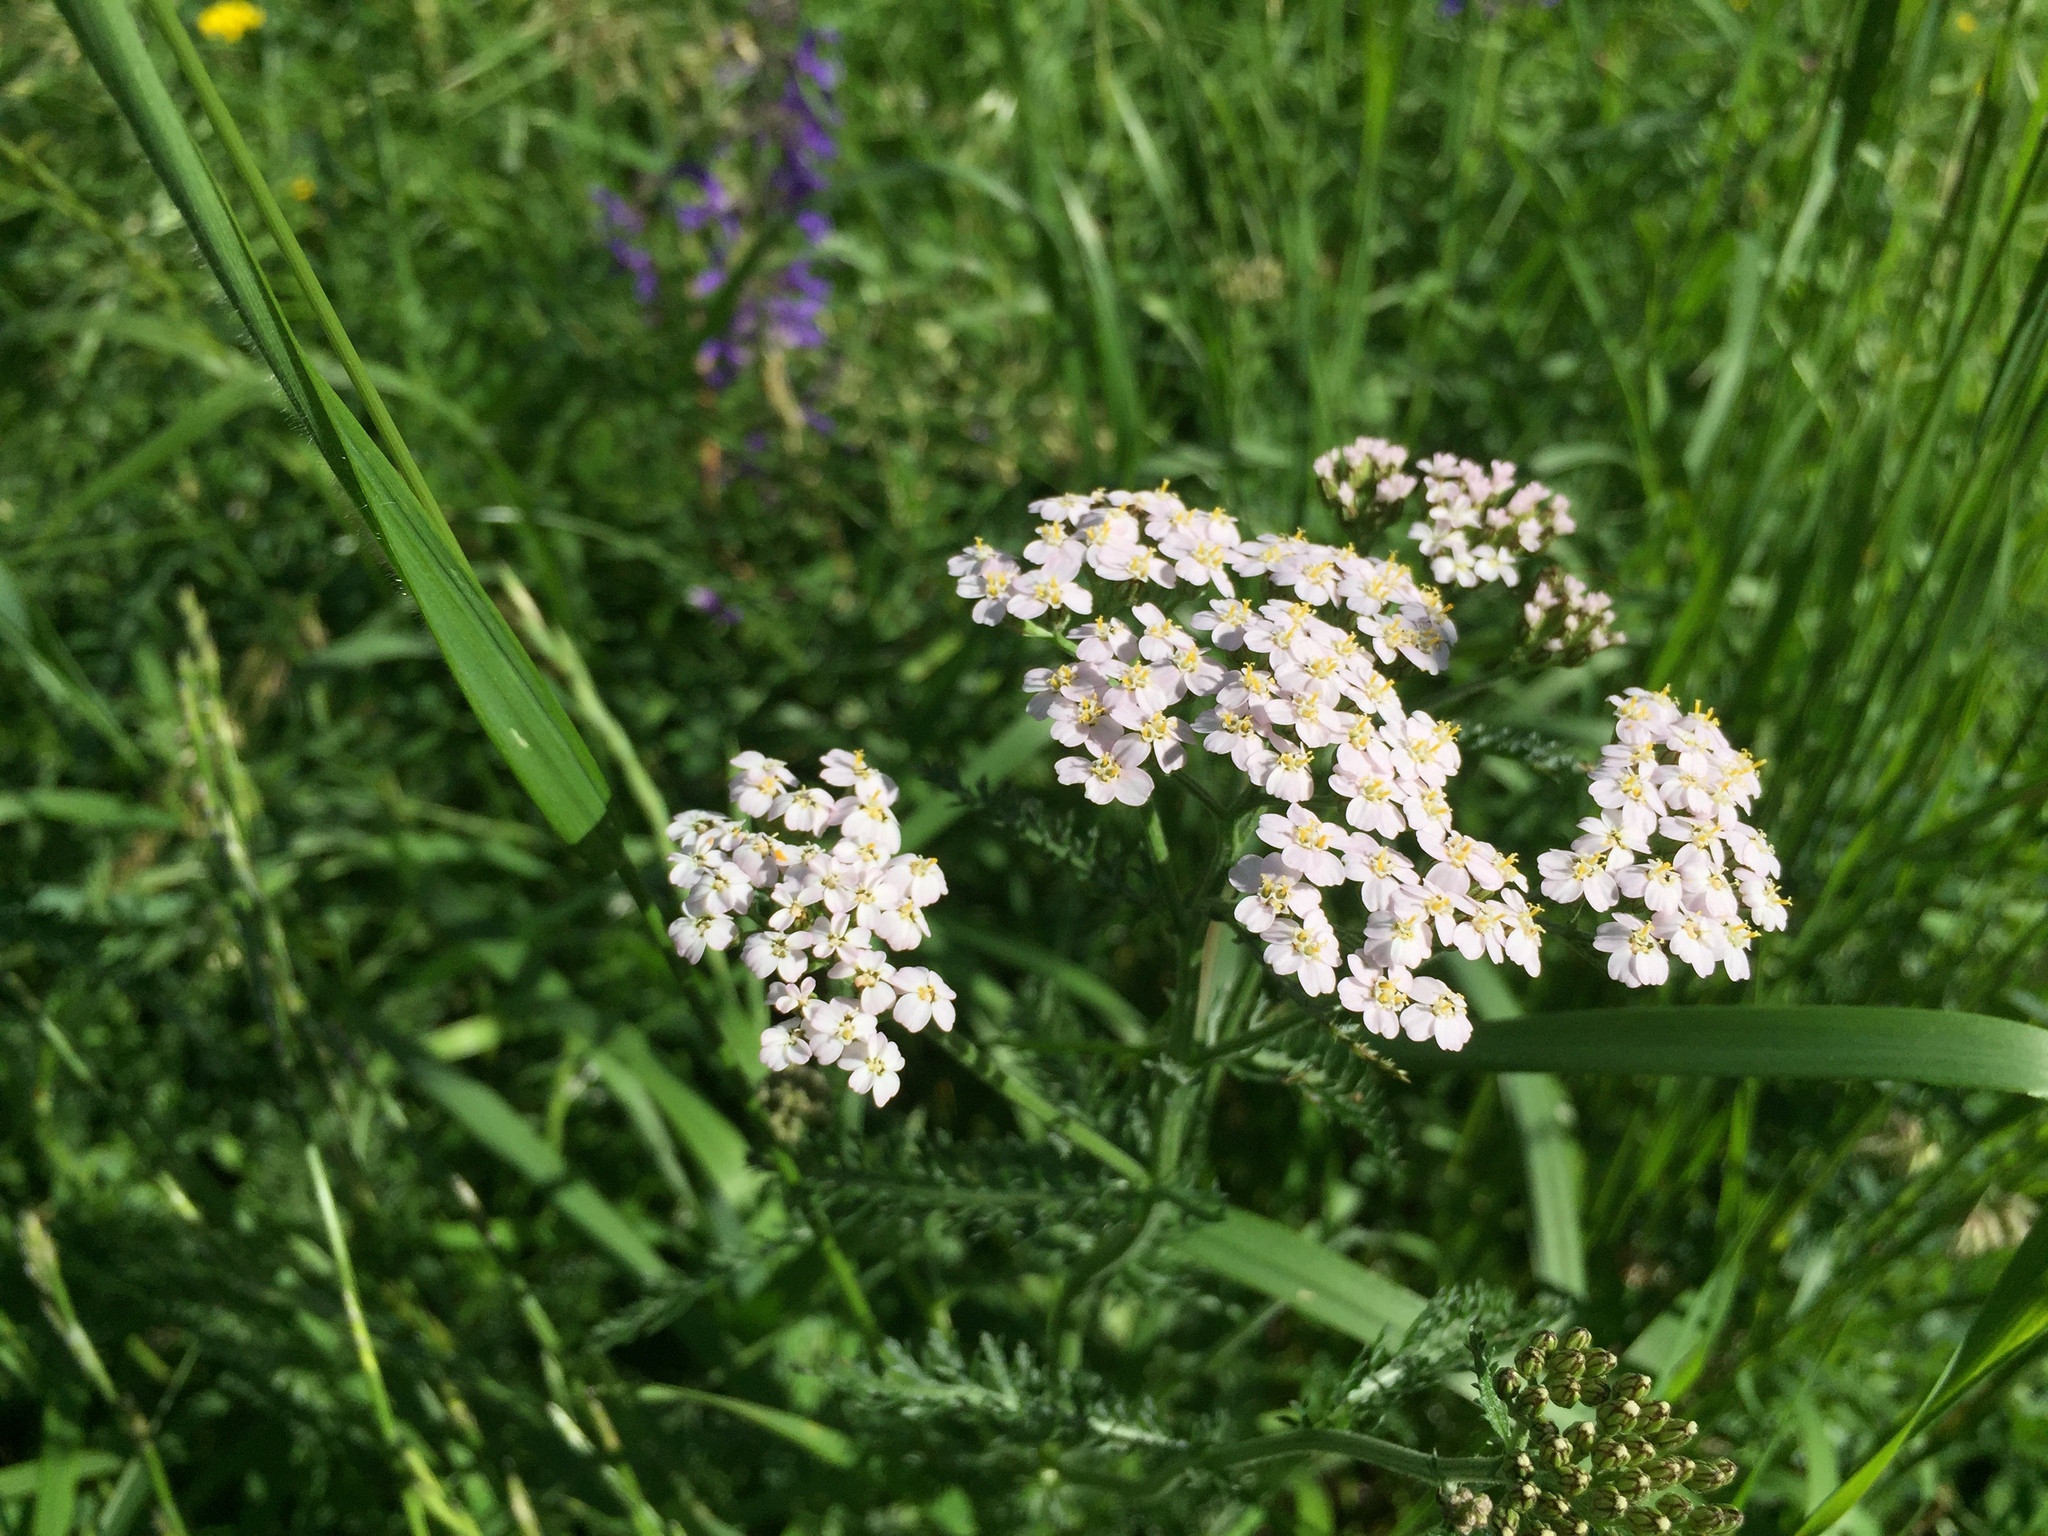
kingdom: Plantae
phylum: Tracheophyta
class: Magnoliopsida
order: Asterales
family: Asteraceae
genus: Achillea
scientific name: Achillea millefolium
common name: Yarrow
